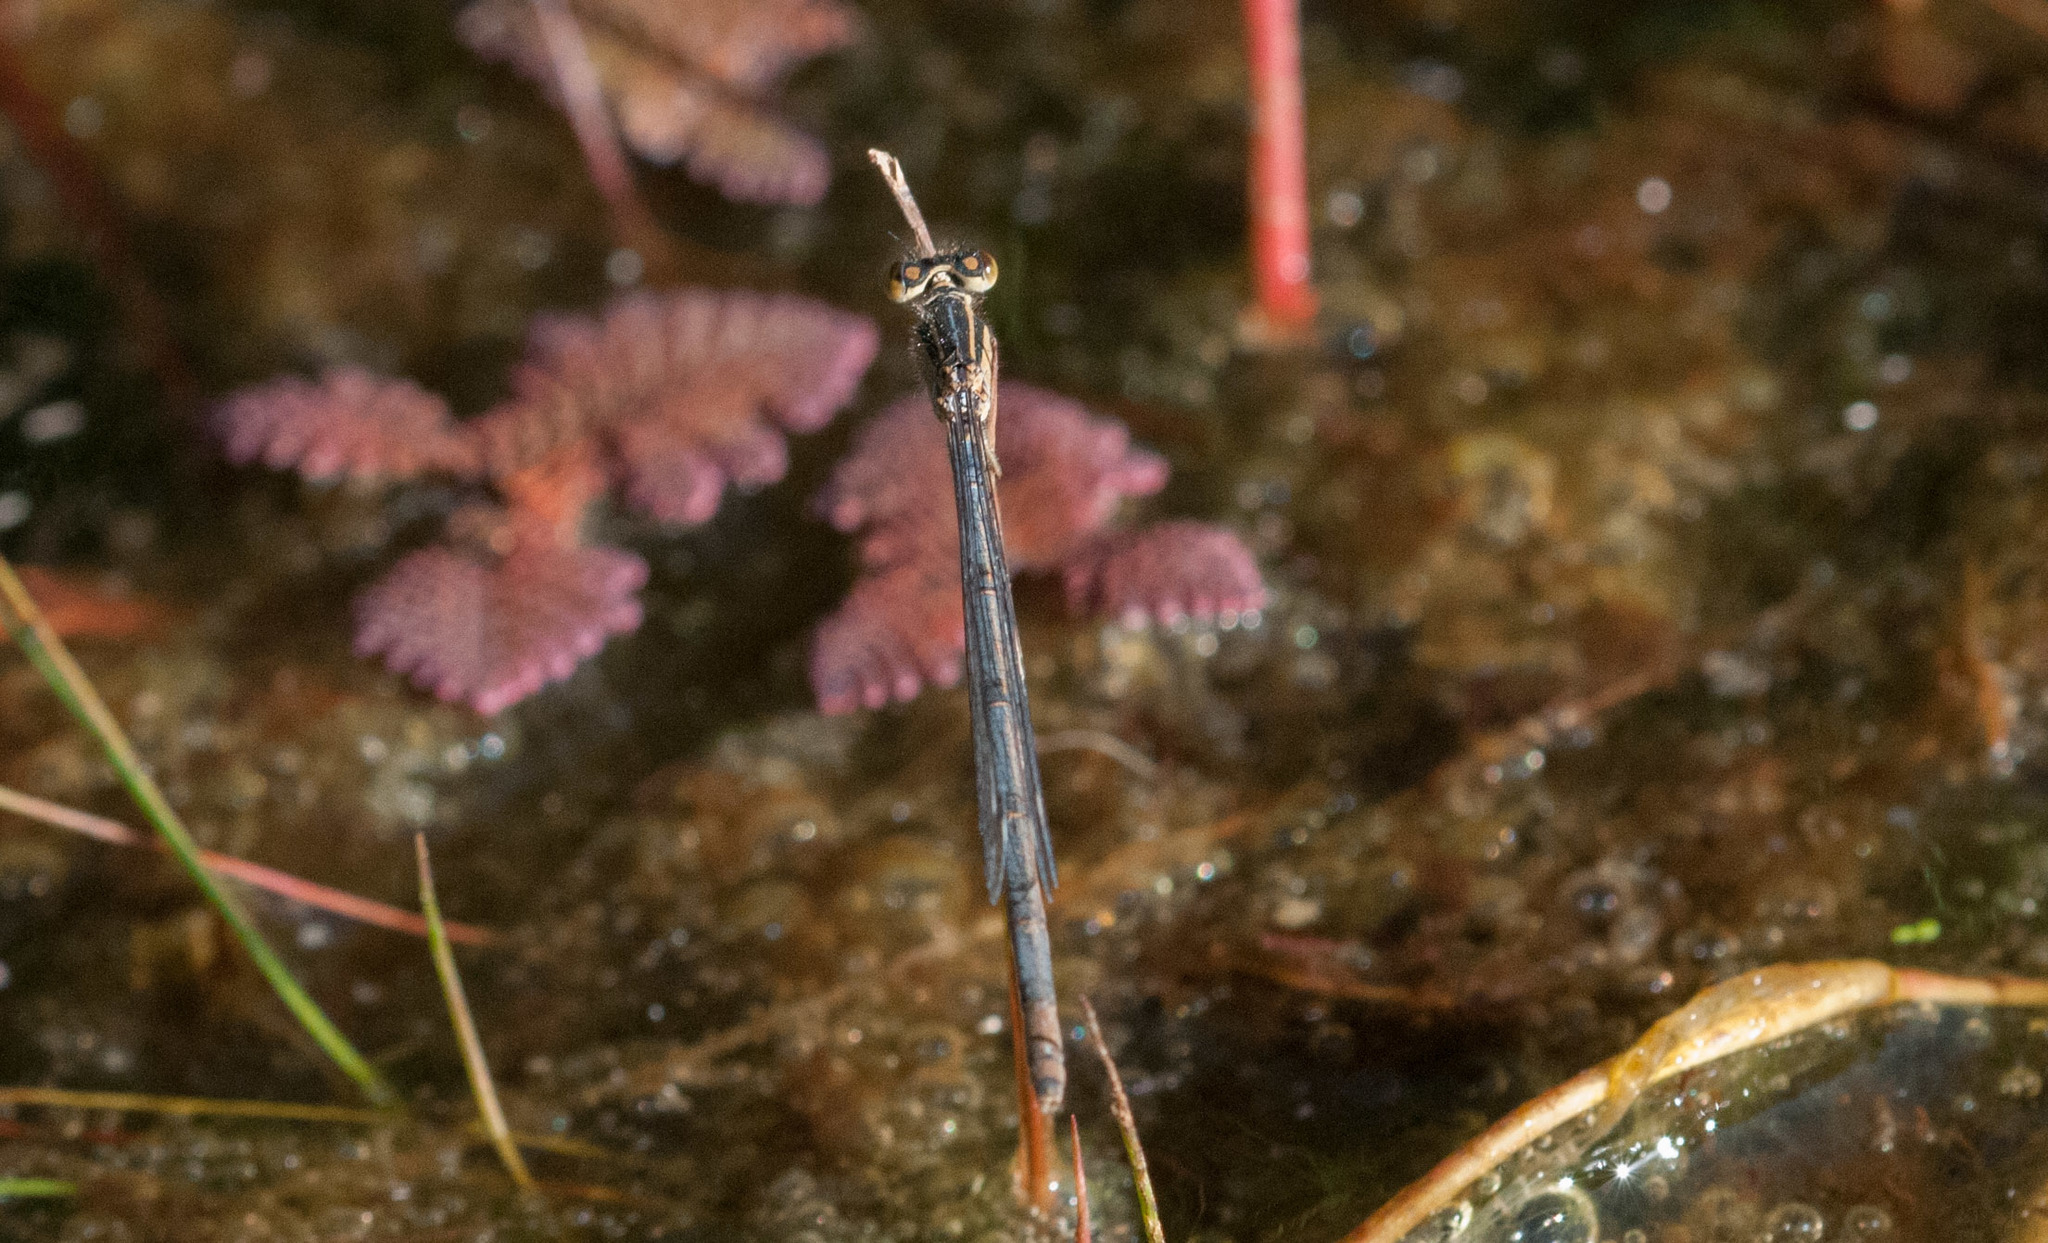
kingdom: Animalia
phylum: Arthropoda
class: Insecta
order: Odonata
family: Coenagrionidae
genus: Ischnura
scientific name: Ischnura heterosticta
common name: Common bluetail
